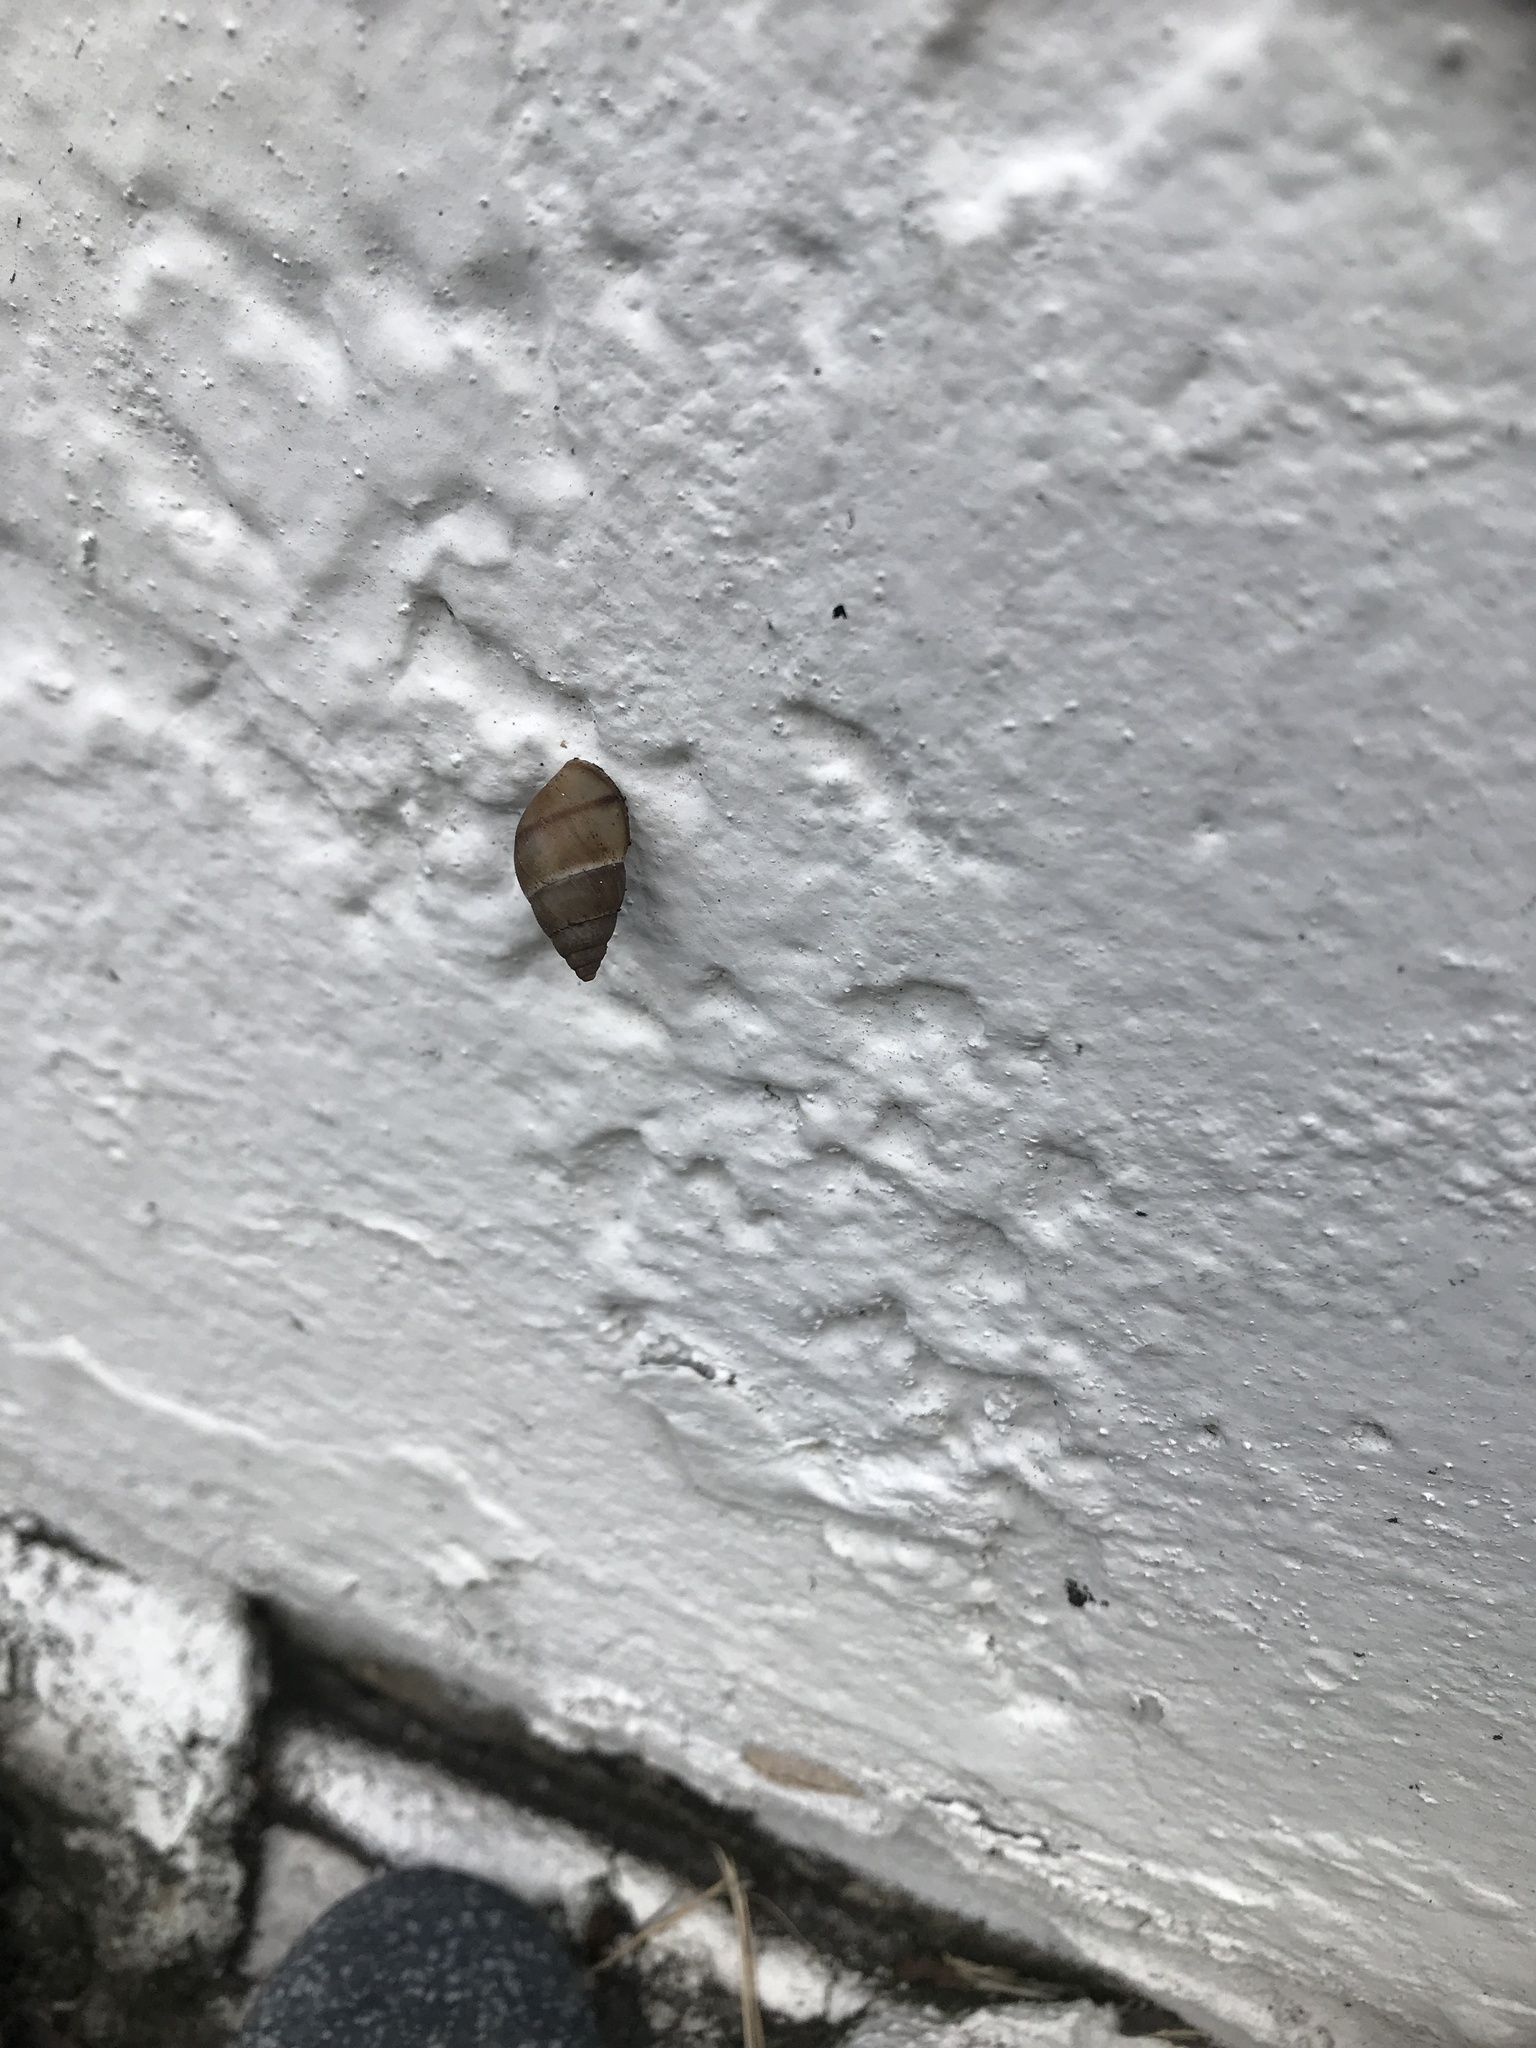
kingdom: Animalia
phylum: Mollusca
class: Gastropoda
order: Stylommatophora
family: Bulimulidae
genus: Bulimulus
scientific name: Bulimulus guadalupensis
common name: West indian bulimulus
